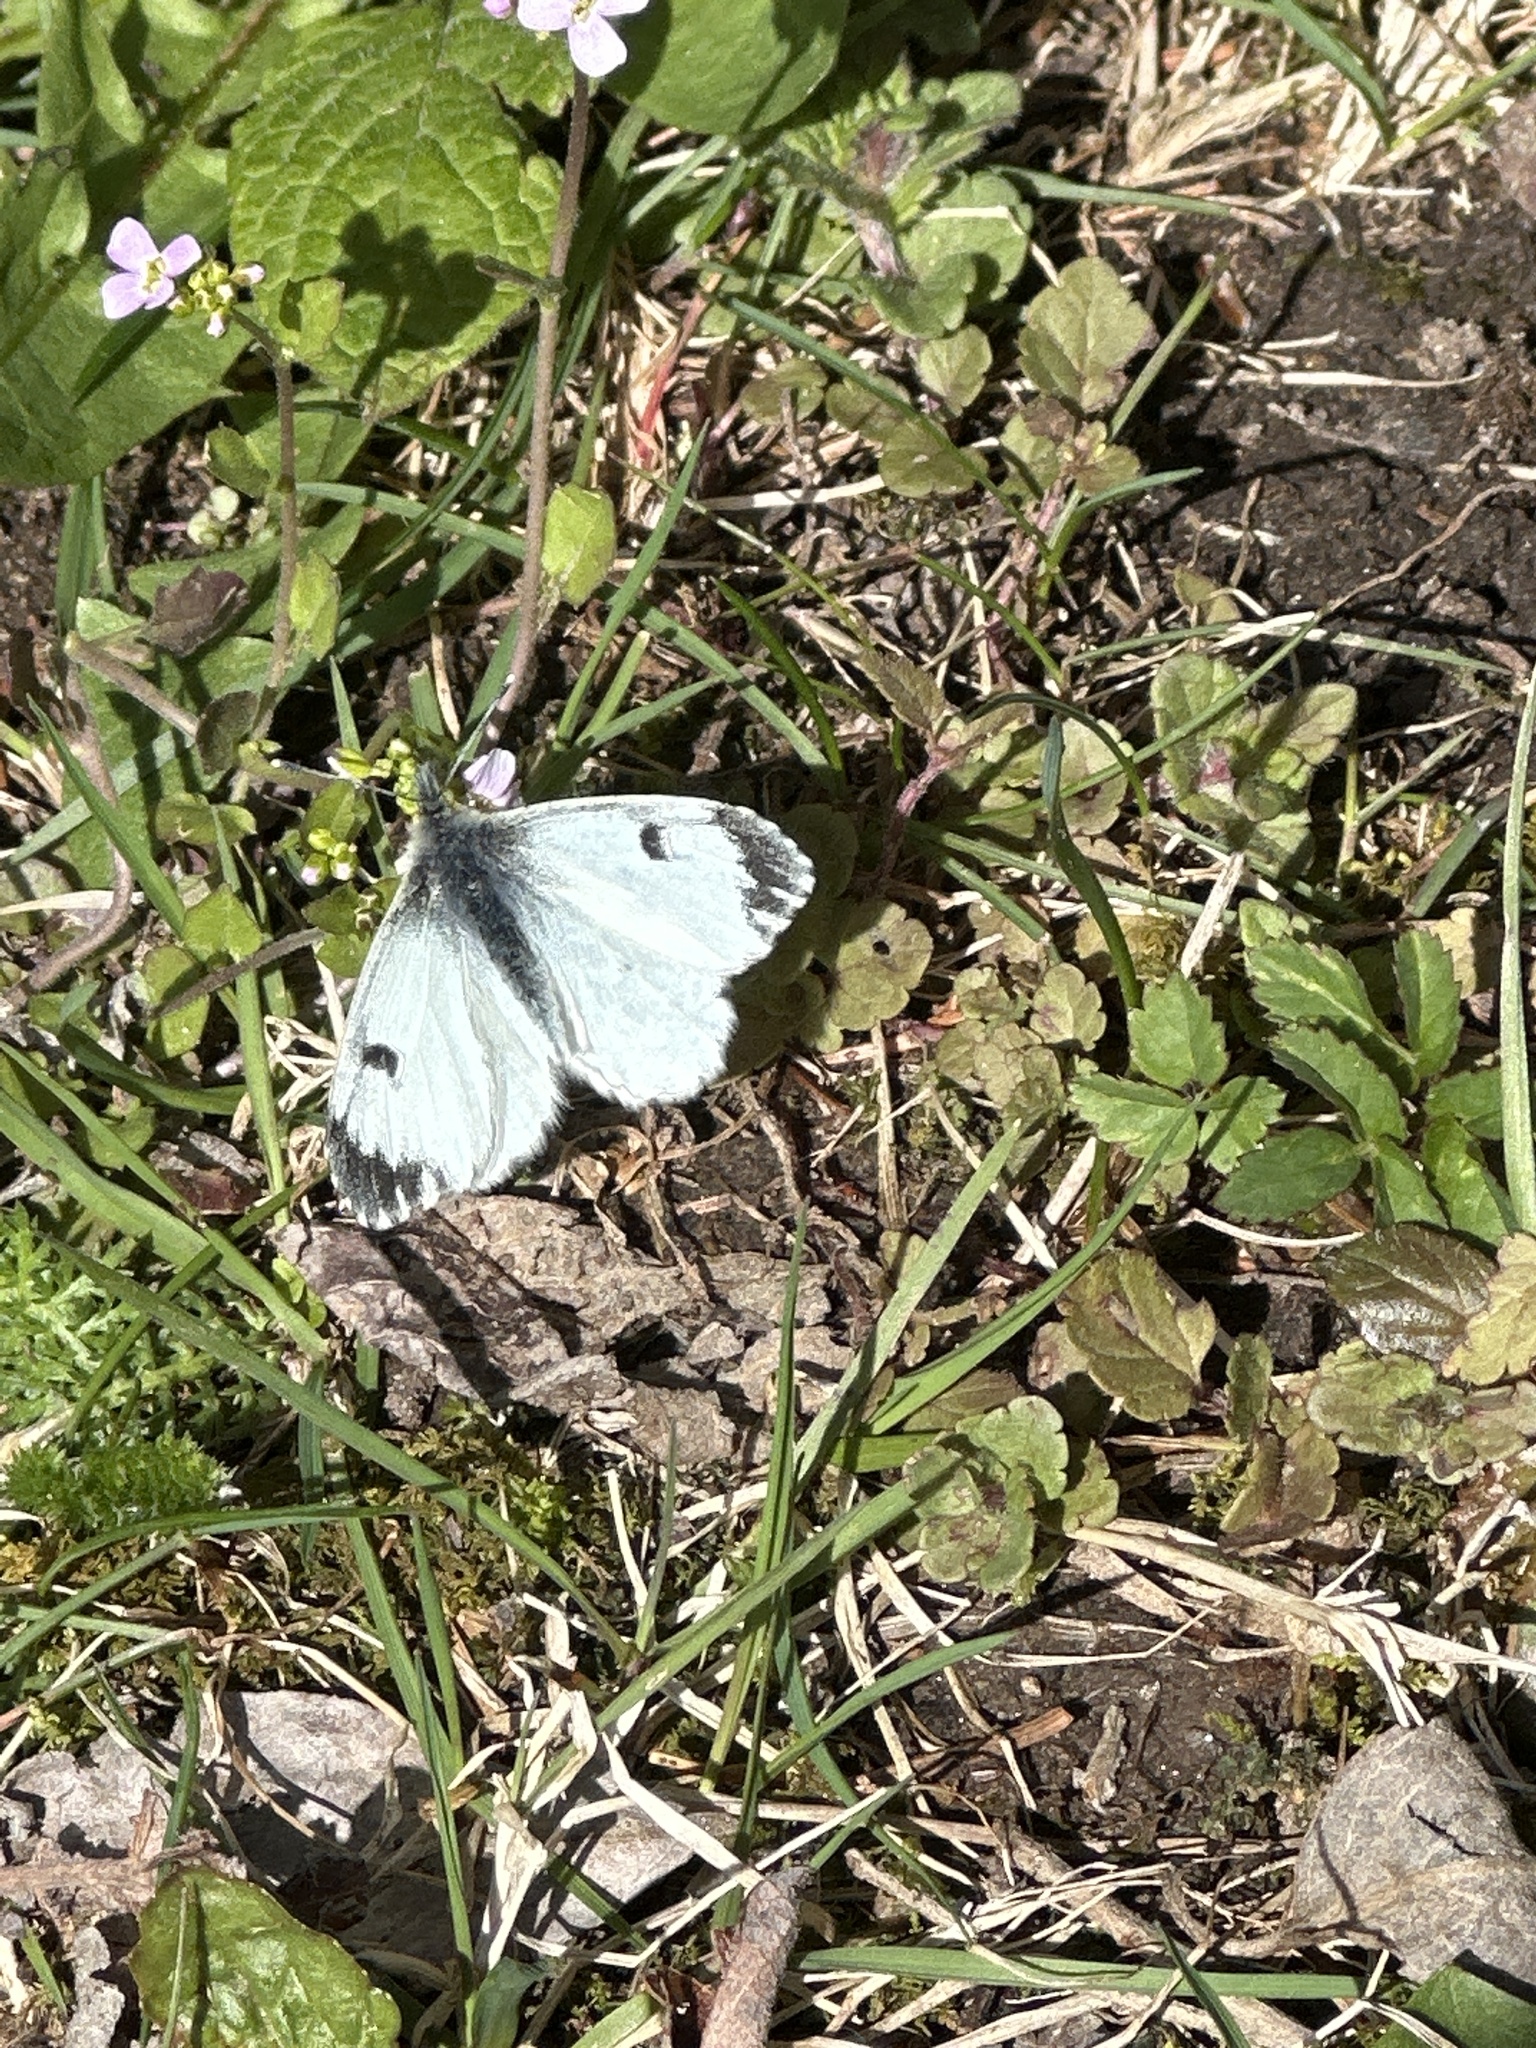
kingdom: Animalia
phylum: Arthropoda
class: Insecta
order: Lepidoptera
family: Pieridae
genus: Anthocharis
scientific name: Anthocharis cardamines
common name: Orange-tip
